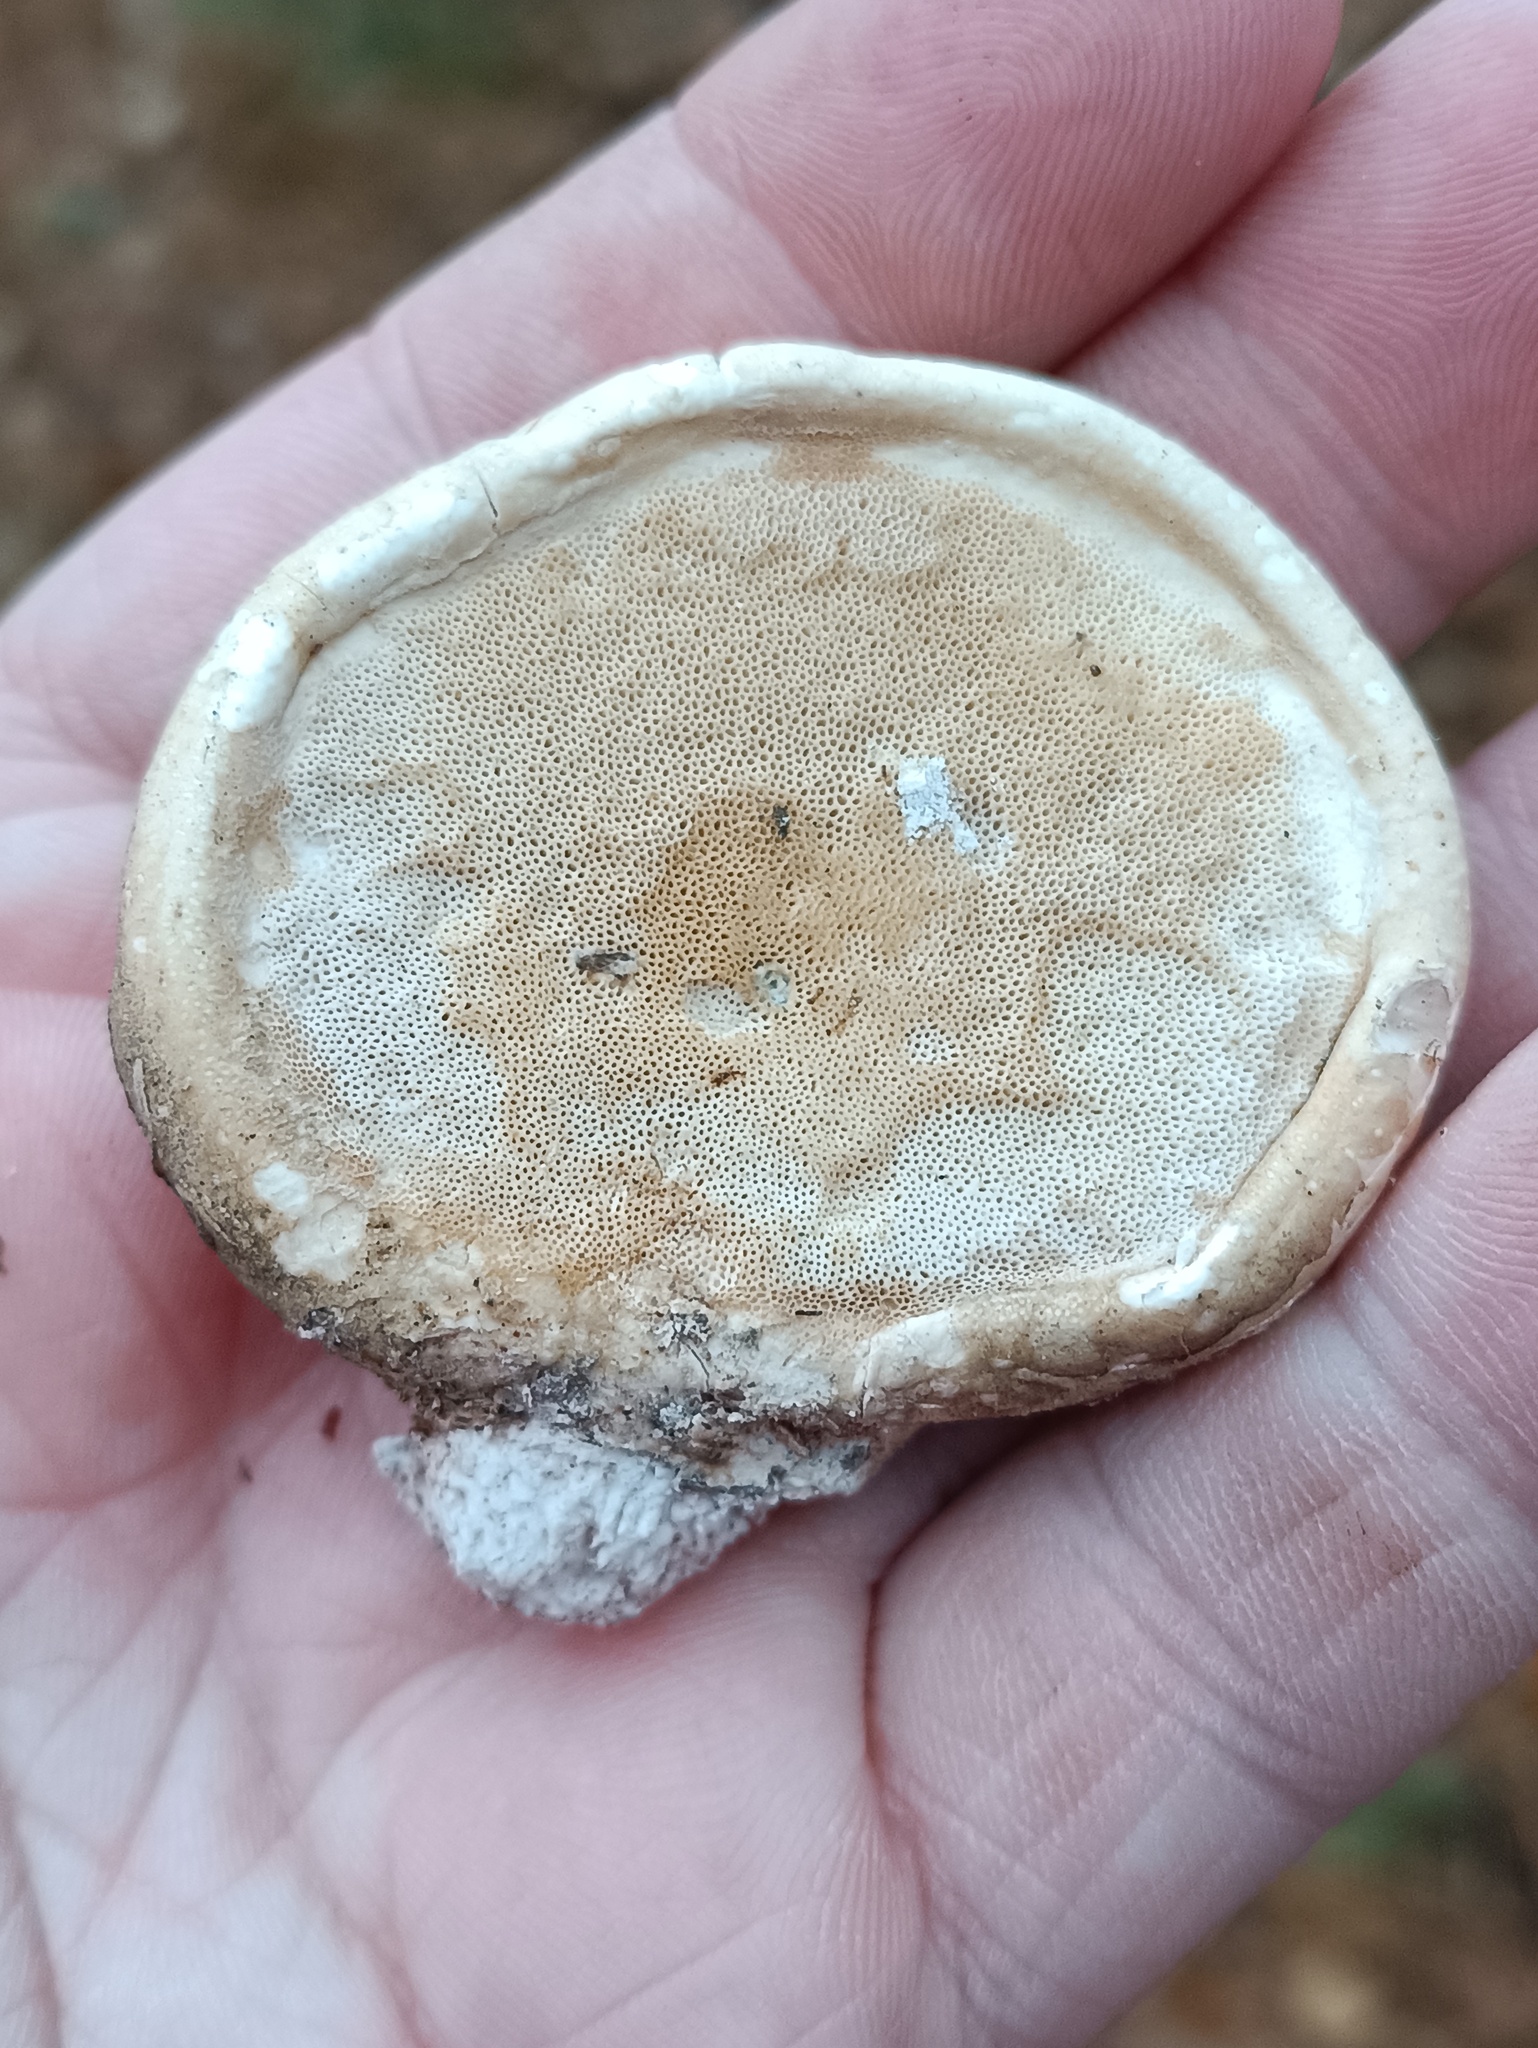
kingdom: Fungi
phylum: Basidiomycota
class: Agaricomycetes
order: Polyporales
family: Fomitopsidaceae
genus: Fomitopsis
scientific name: Fomitopsis betulina
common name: Birch polypore
